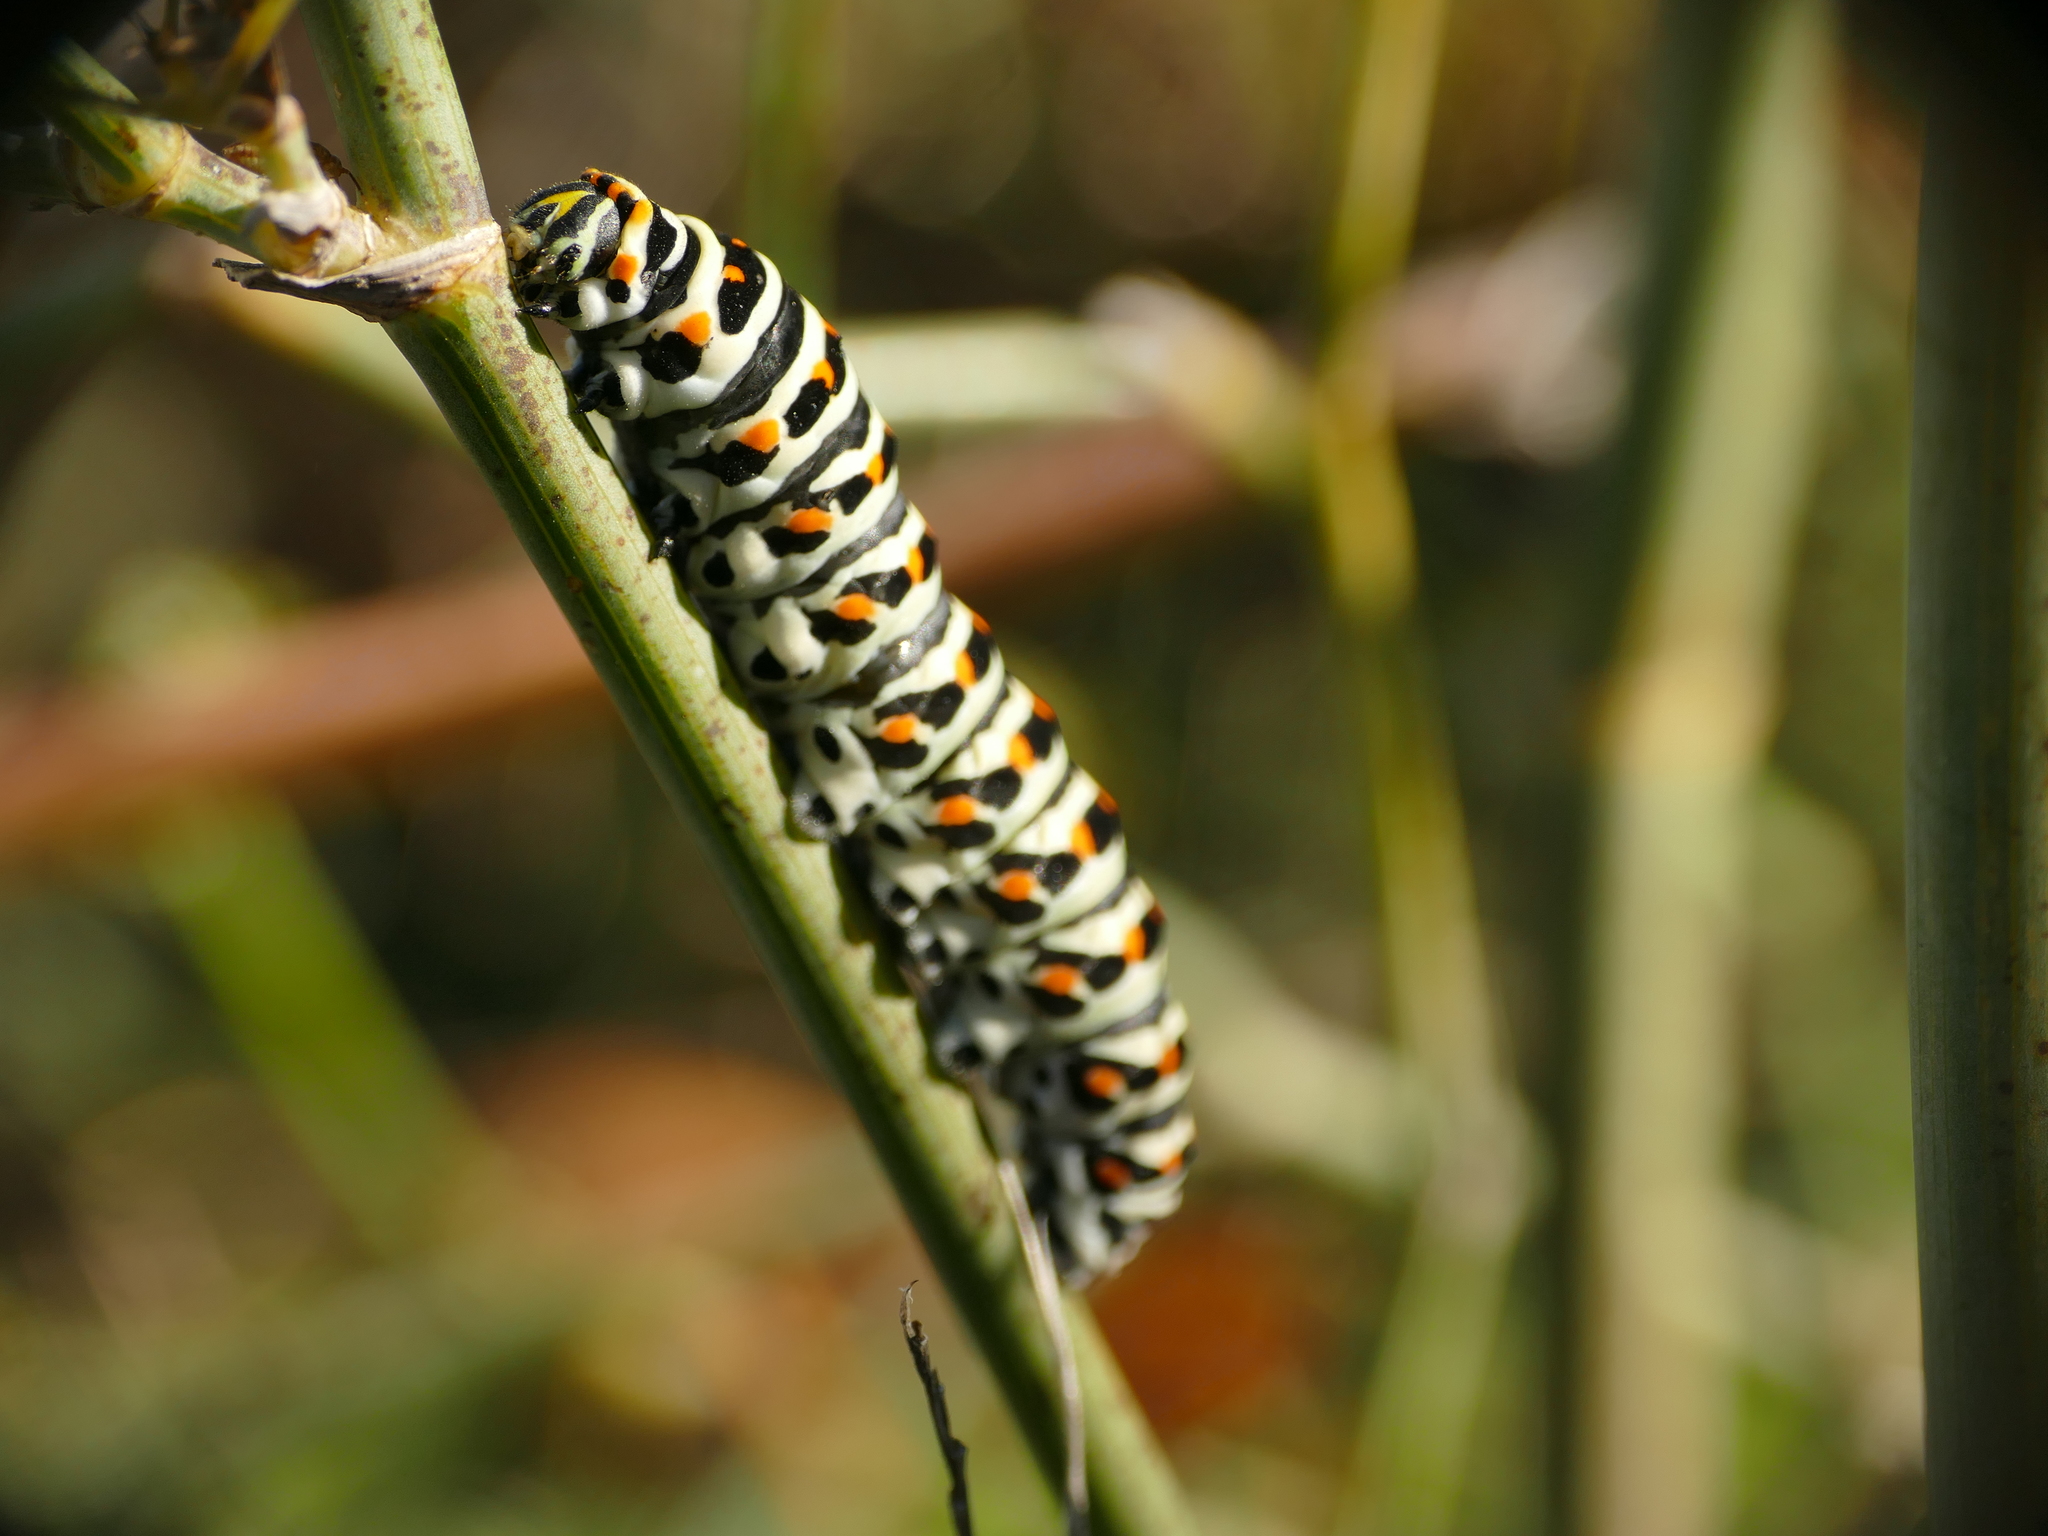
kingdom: Animalia
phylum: Arthropoda
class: Insecta
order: Lepidoptera
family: Papilionidae
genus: Papilio
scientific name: Papilio machaon
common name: Swallowtail
